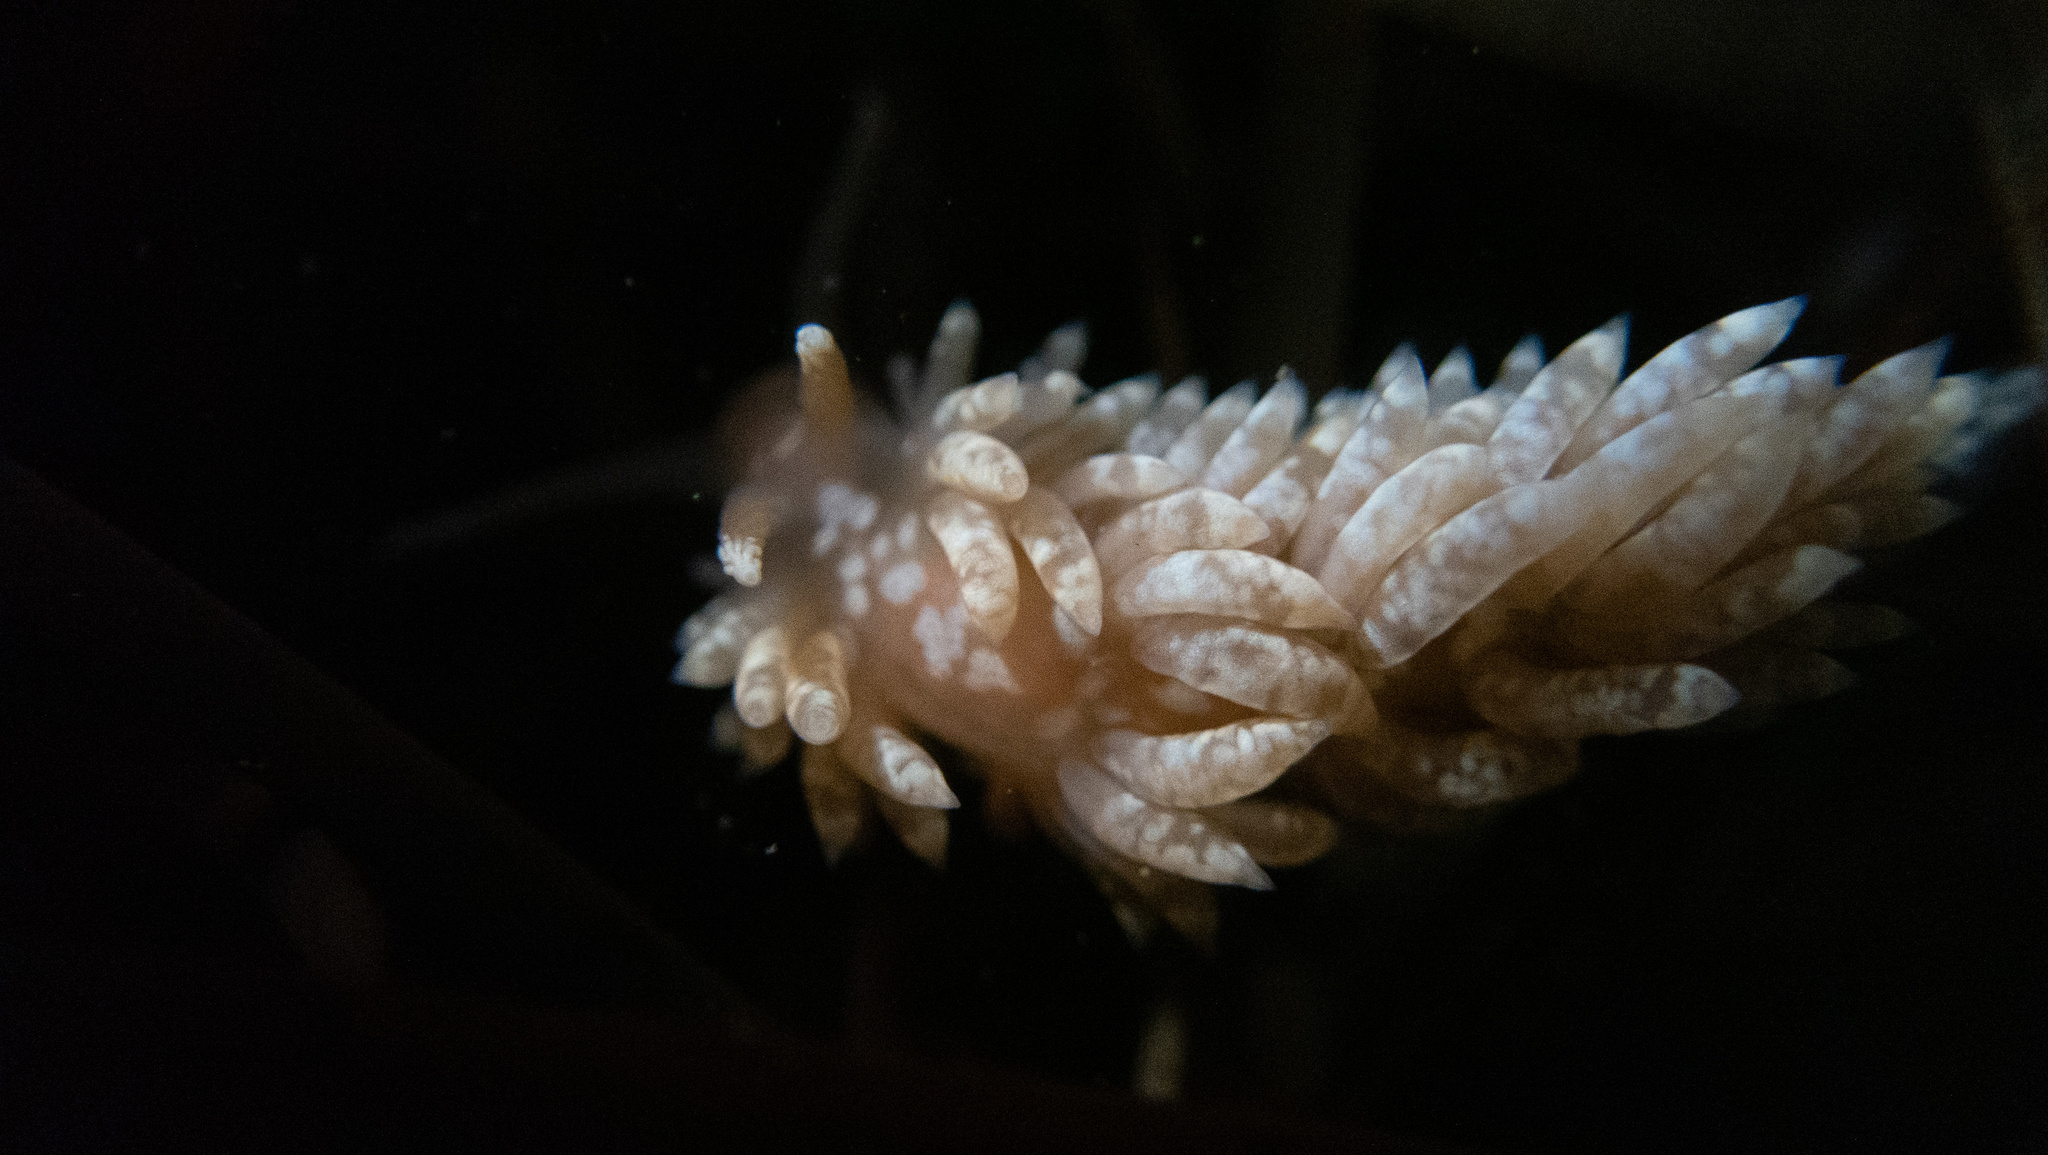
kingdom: Animalia
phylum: Mollusca
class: Gastropoda
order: Nudibranchia
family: Aeolidiidae
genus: Anteaeolidiella
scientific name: Anteaeolidiella chromosoma
